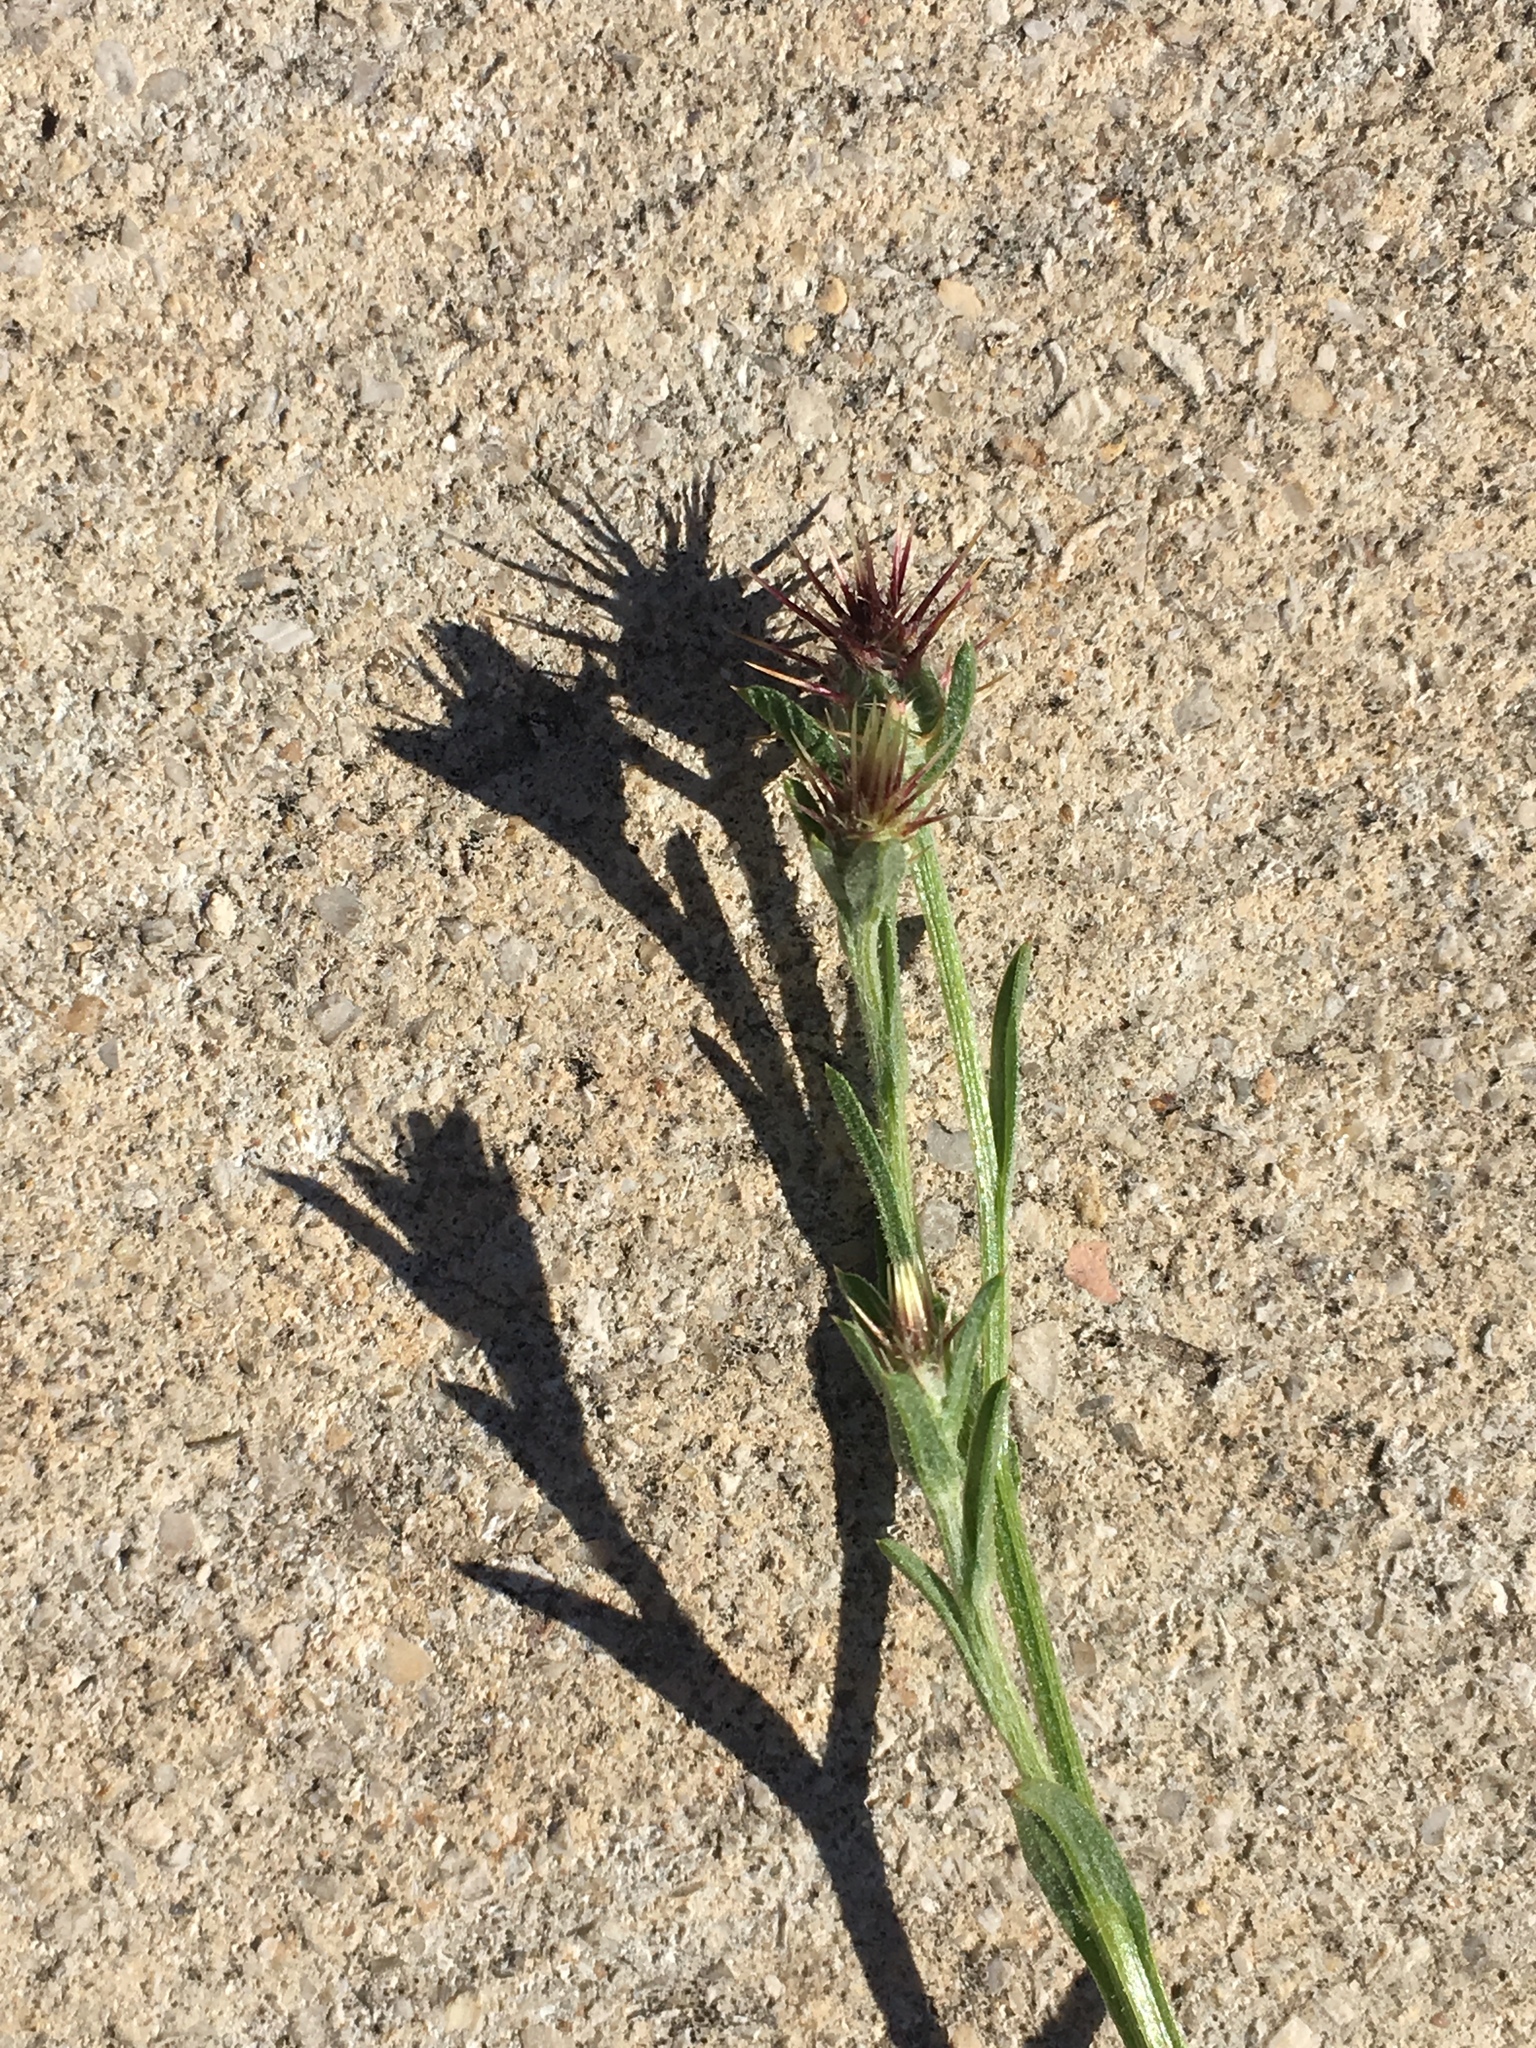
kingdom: Plantae
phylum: Tracheophyta
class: Magnoliopsida
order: Asterales
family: Asteraceae
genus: Centaurea
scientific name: Centaurea melitensis
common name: Maltese star-thistle
